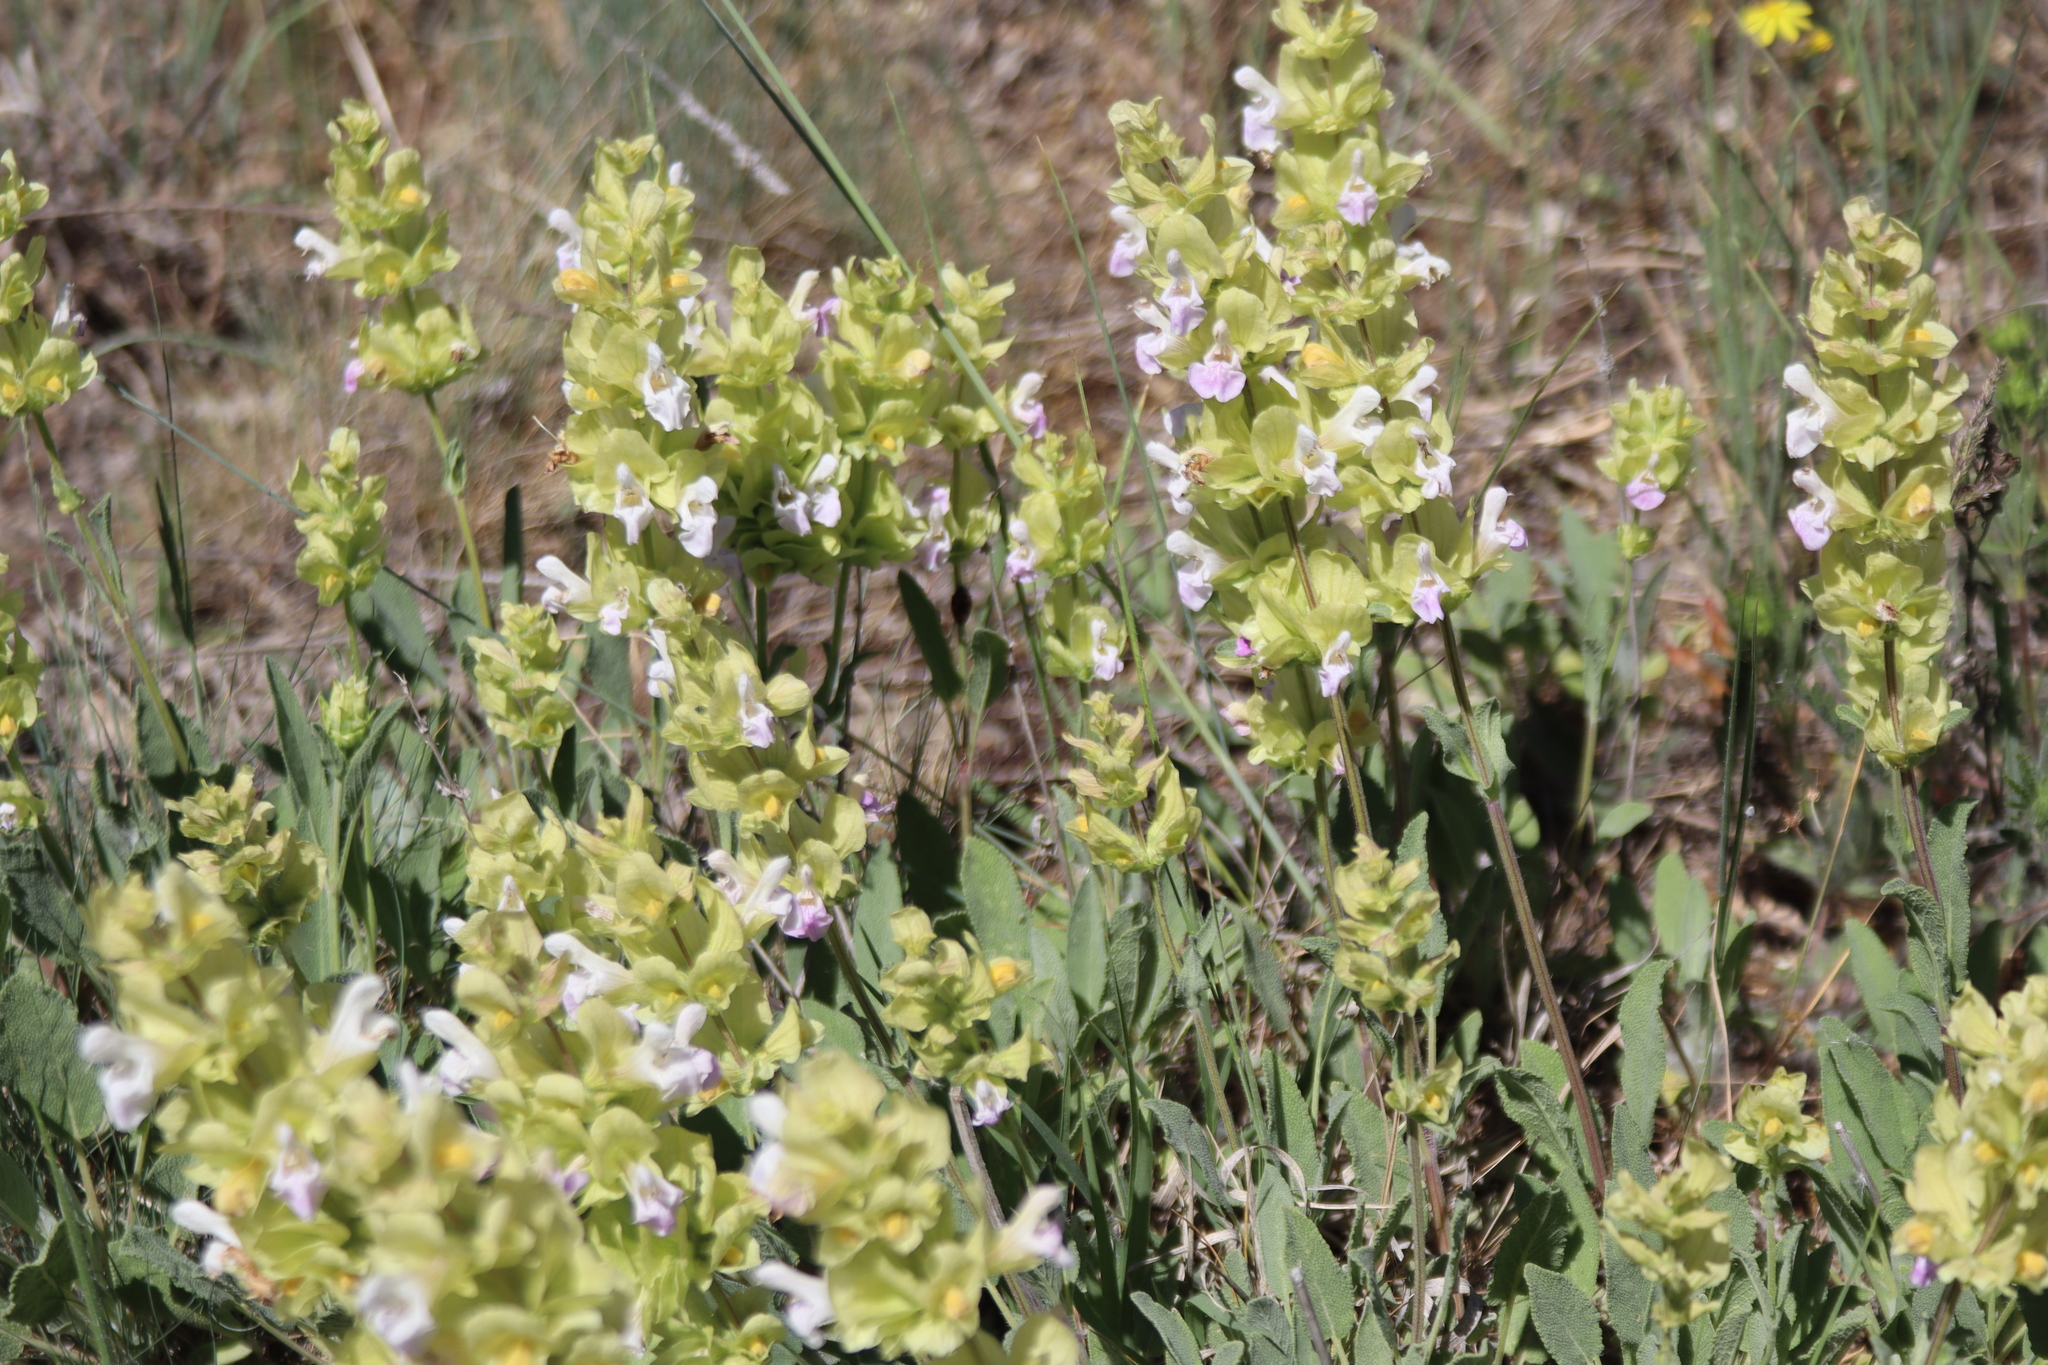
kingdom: Plantae
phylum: Tracheophyta
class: Magnoliopsida
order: Lamiales
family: Lamiaceae
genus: Salvia
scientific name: Salvia absconditiflora
